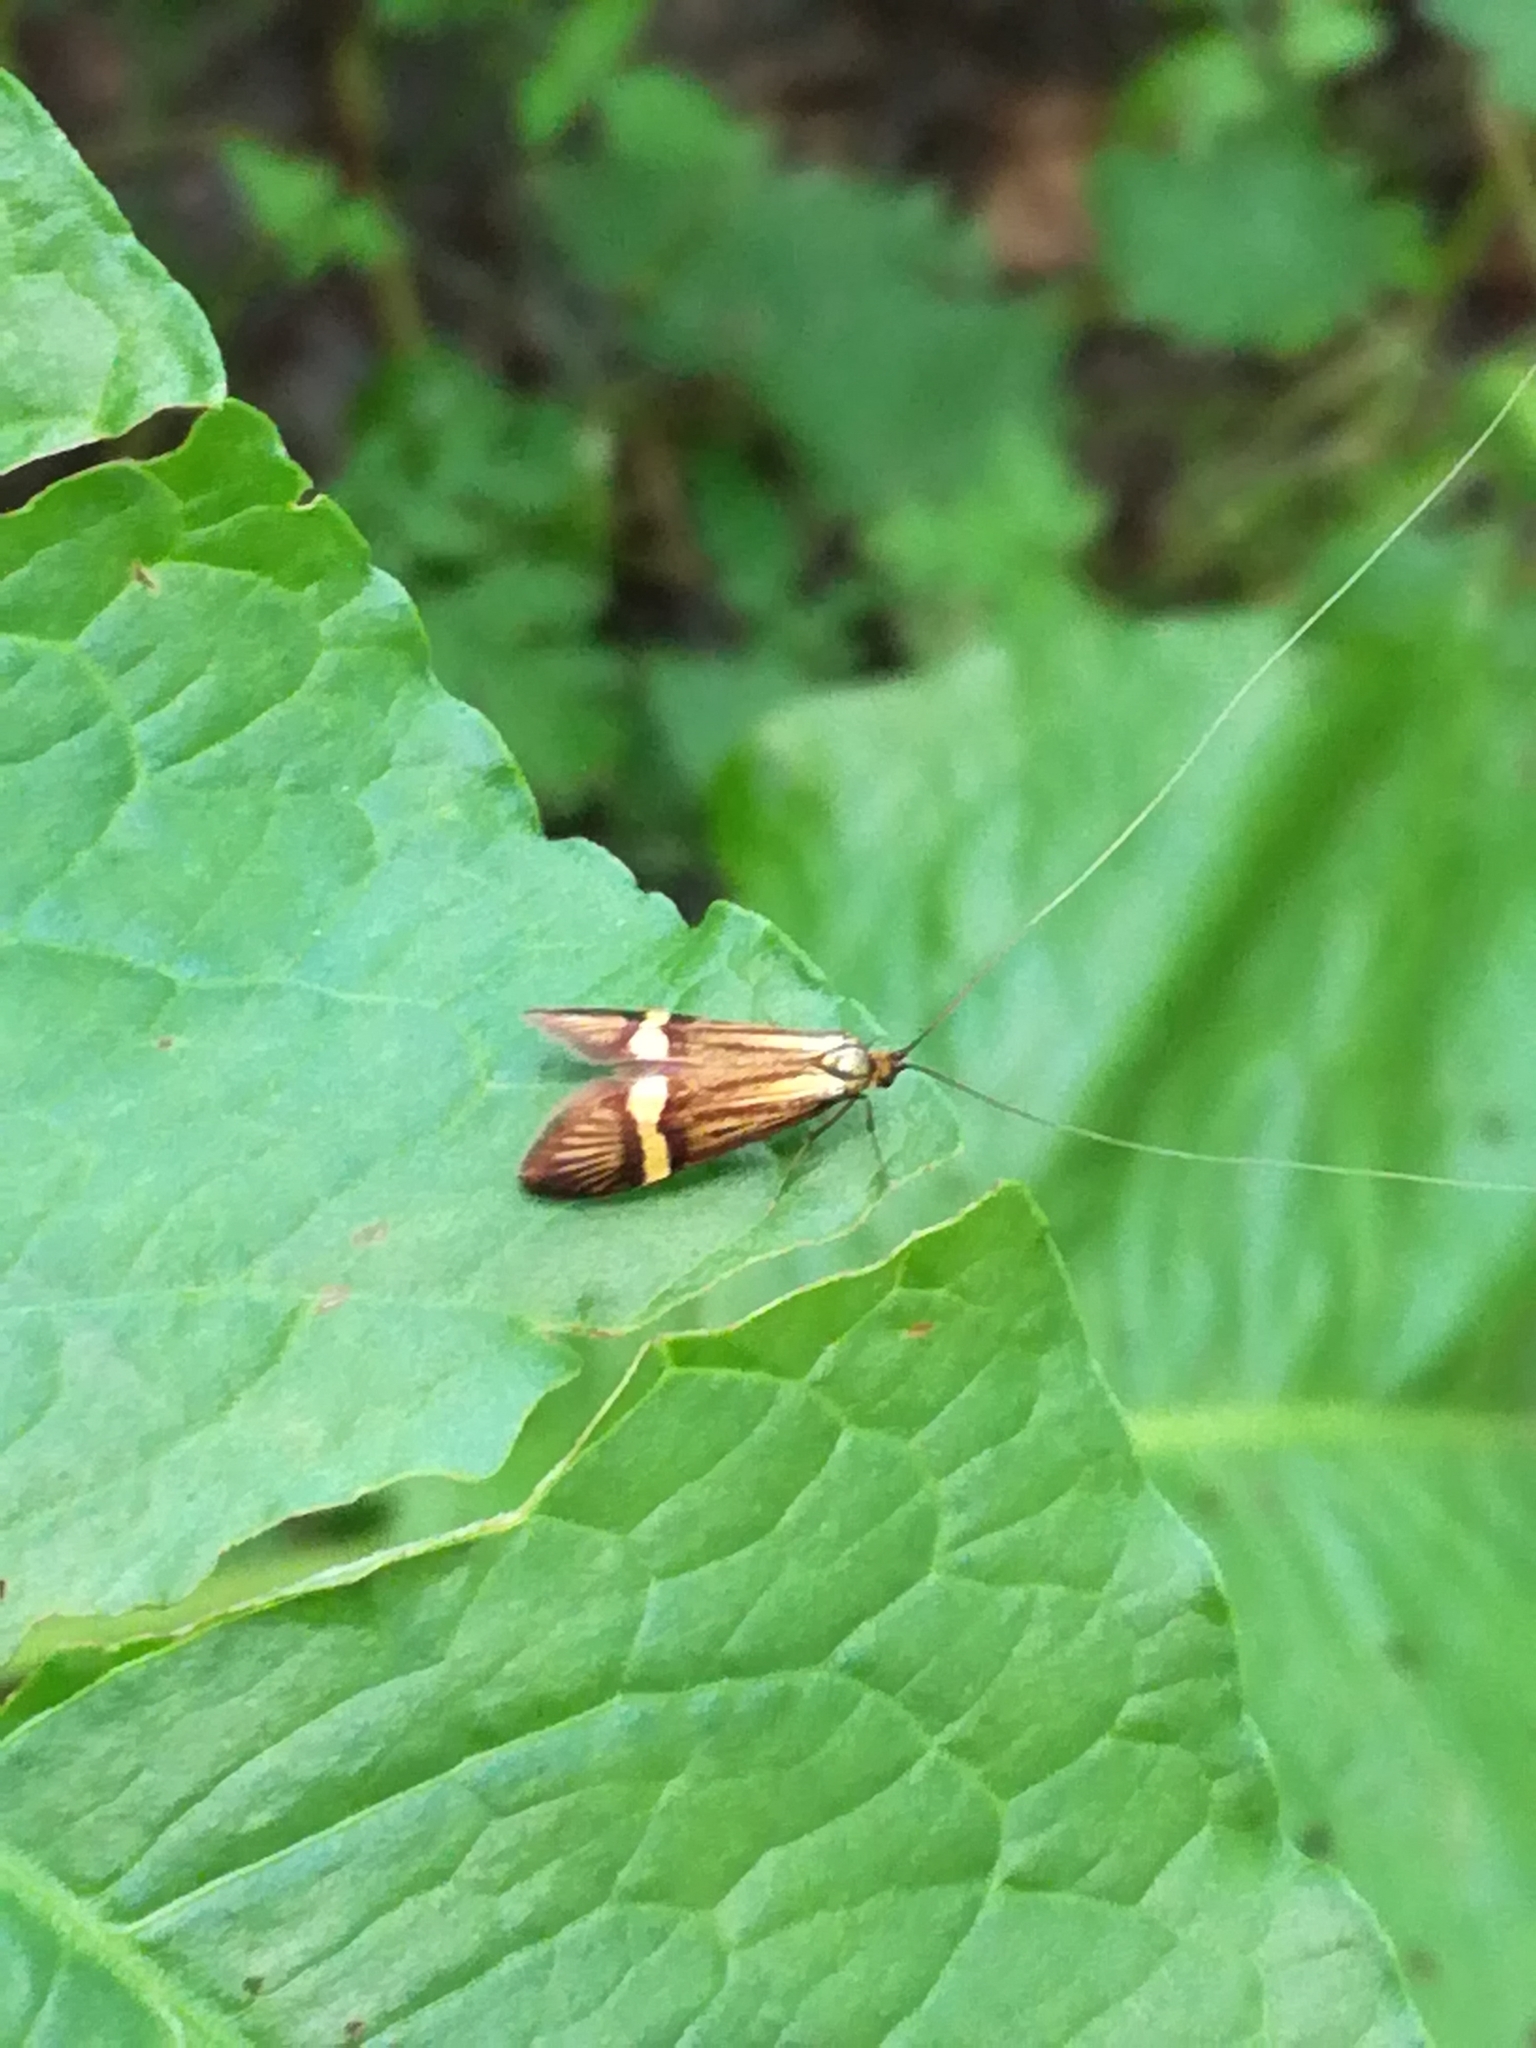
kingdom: Animalia
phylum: Arthropoda
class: Insecta
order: Lepidoptera
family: Adelidae
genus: Nemophora
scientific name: Nemophora degeerella
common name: Yellow-barred long-horn
